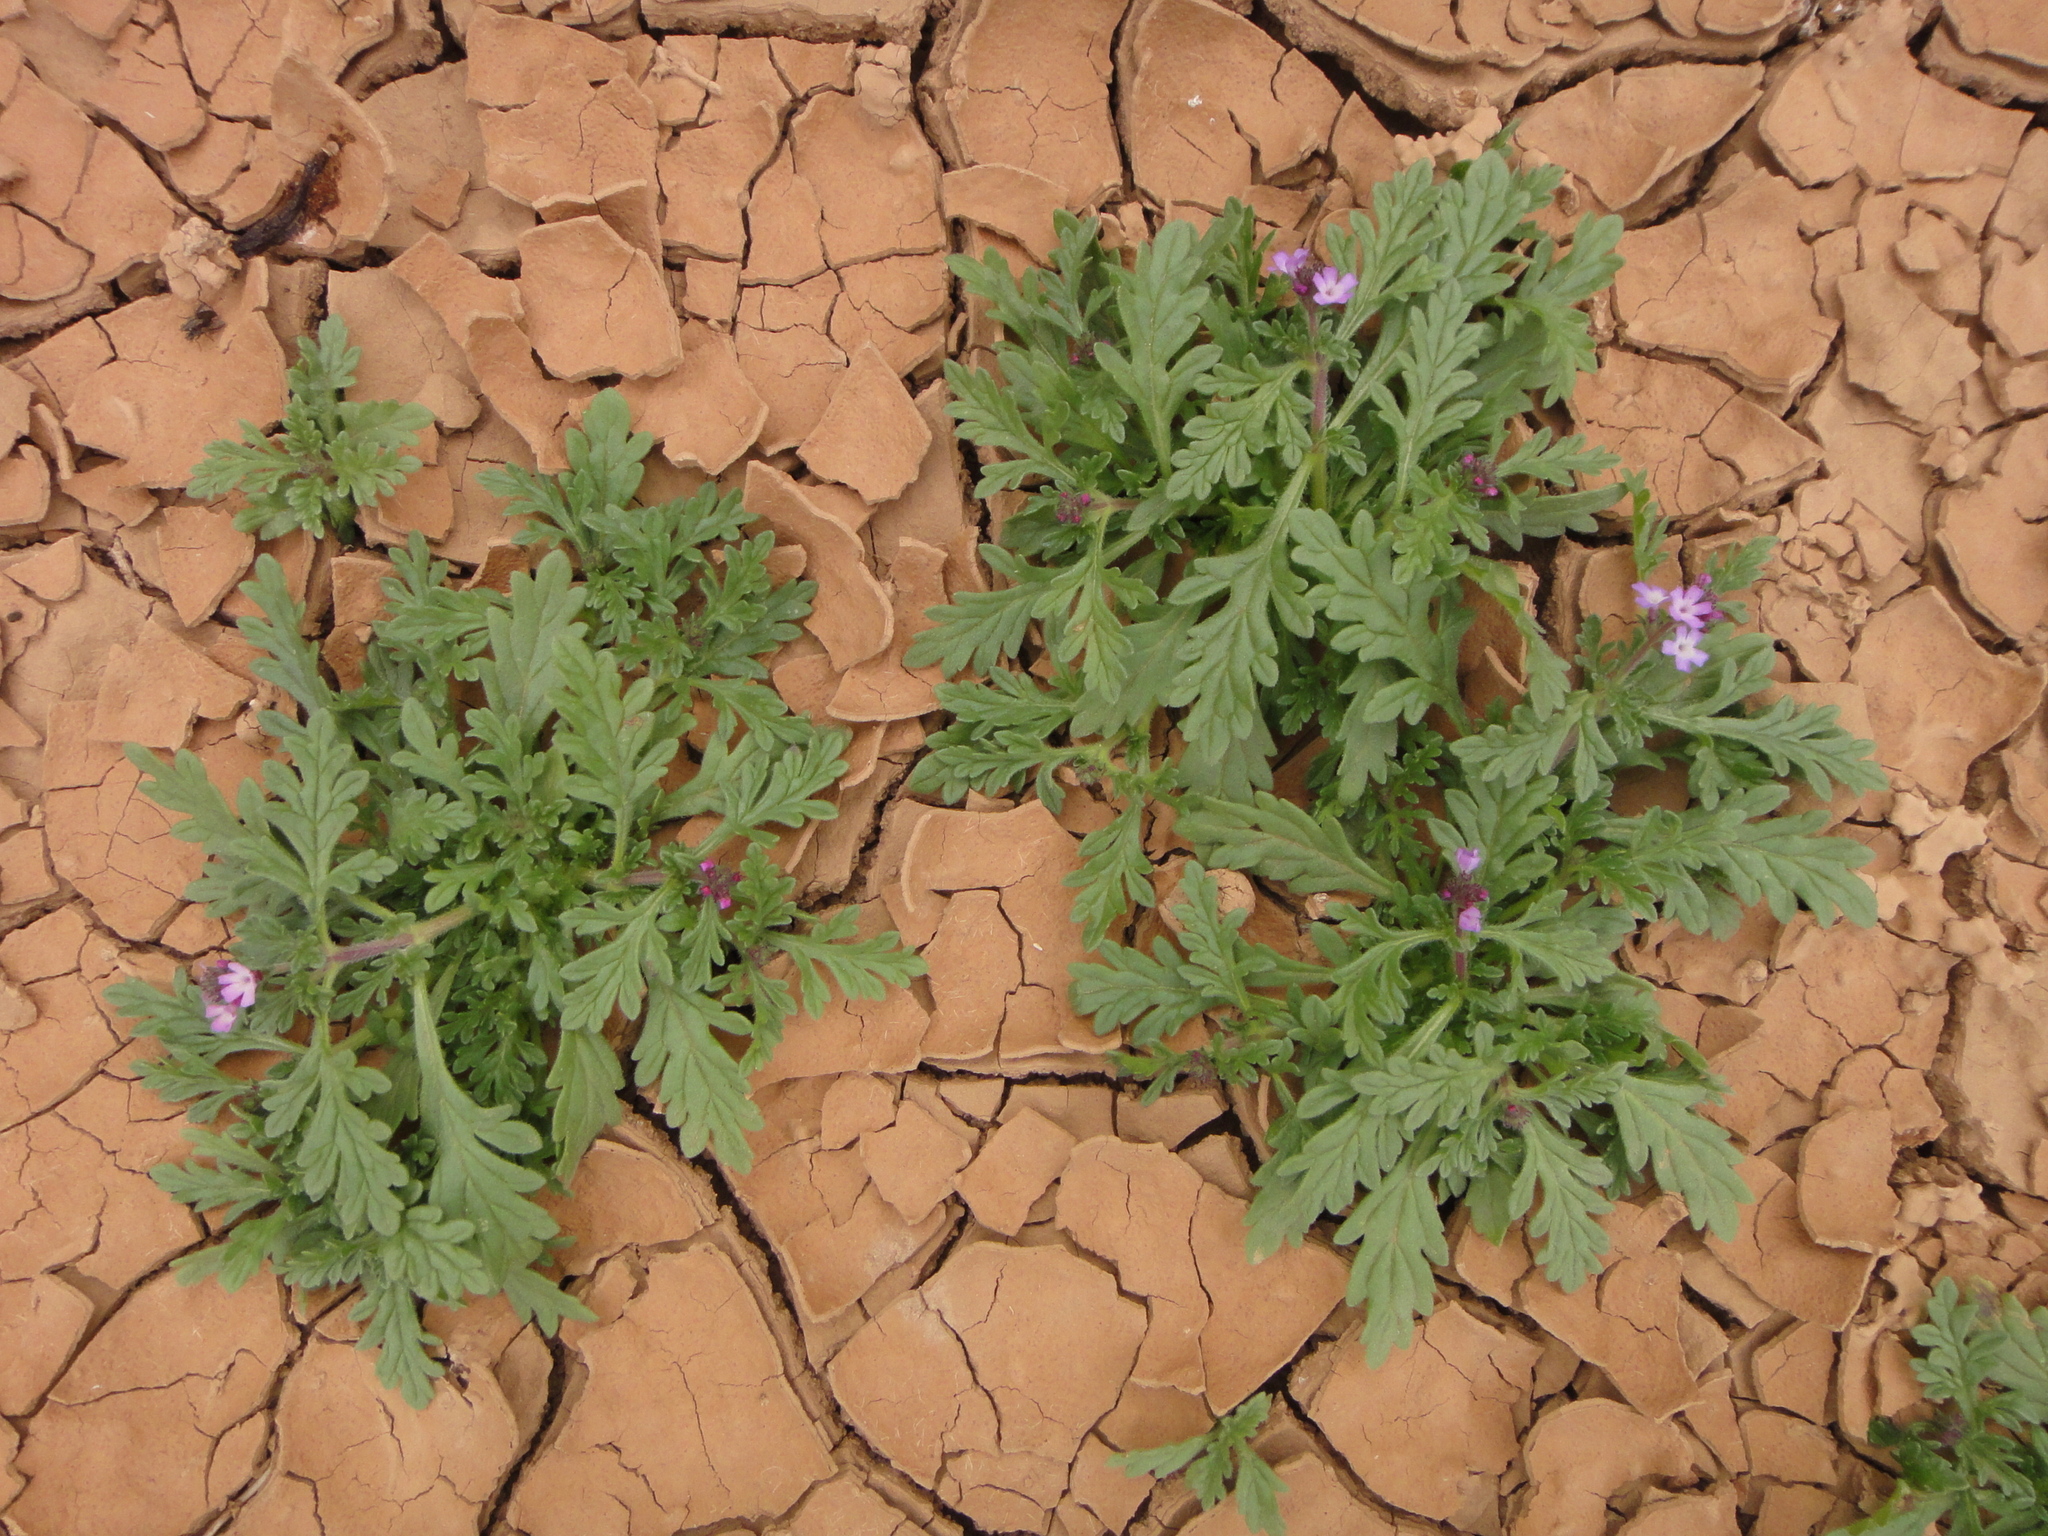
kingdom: Plantae
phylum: Tracheophyta
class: Magnoliopsida
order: Lamiales
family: Verbenaceae
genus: Verbena
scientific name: Verbena supina
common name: Trailing vervain
